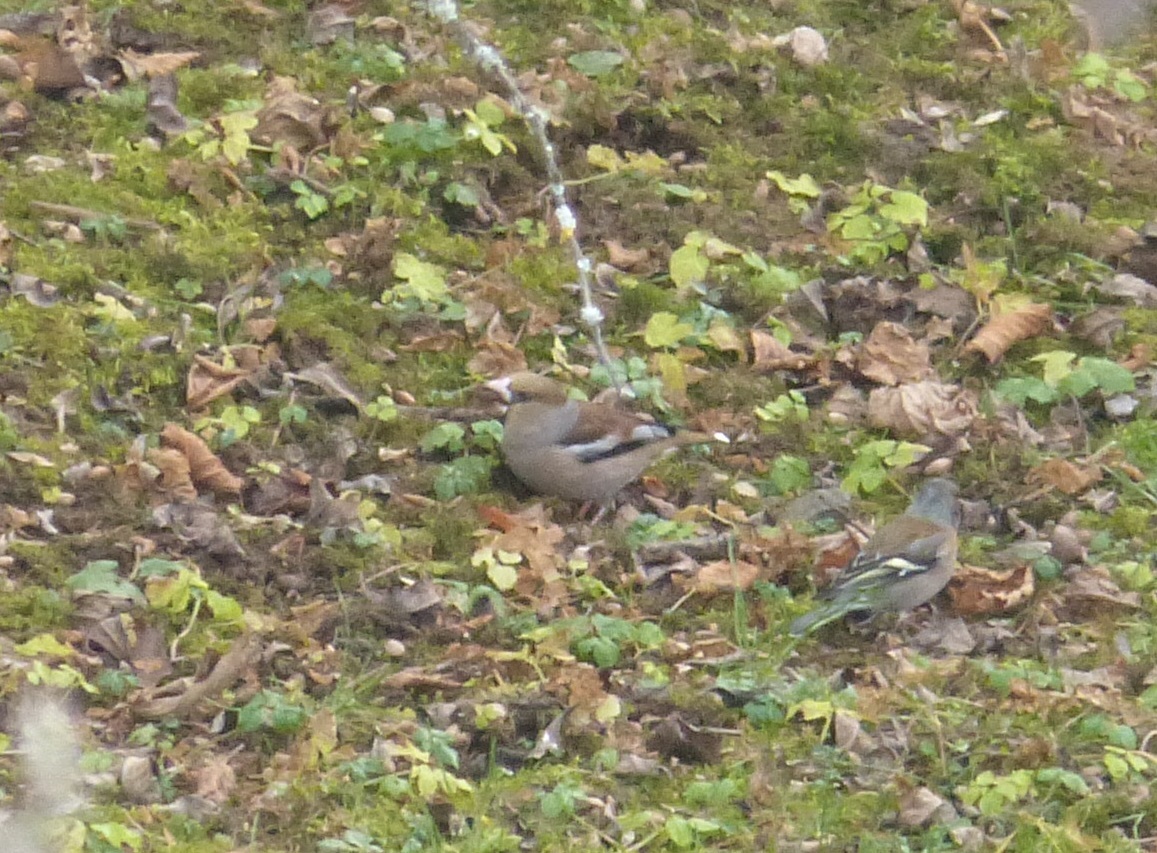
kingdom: Animalia
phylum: Chordata
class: Aves
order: Passeriformes
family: Fringillidae
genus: Coccothraustes
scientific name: Coccothraustes coccothraustes
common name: Hawfinch
